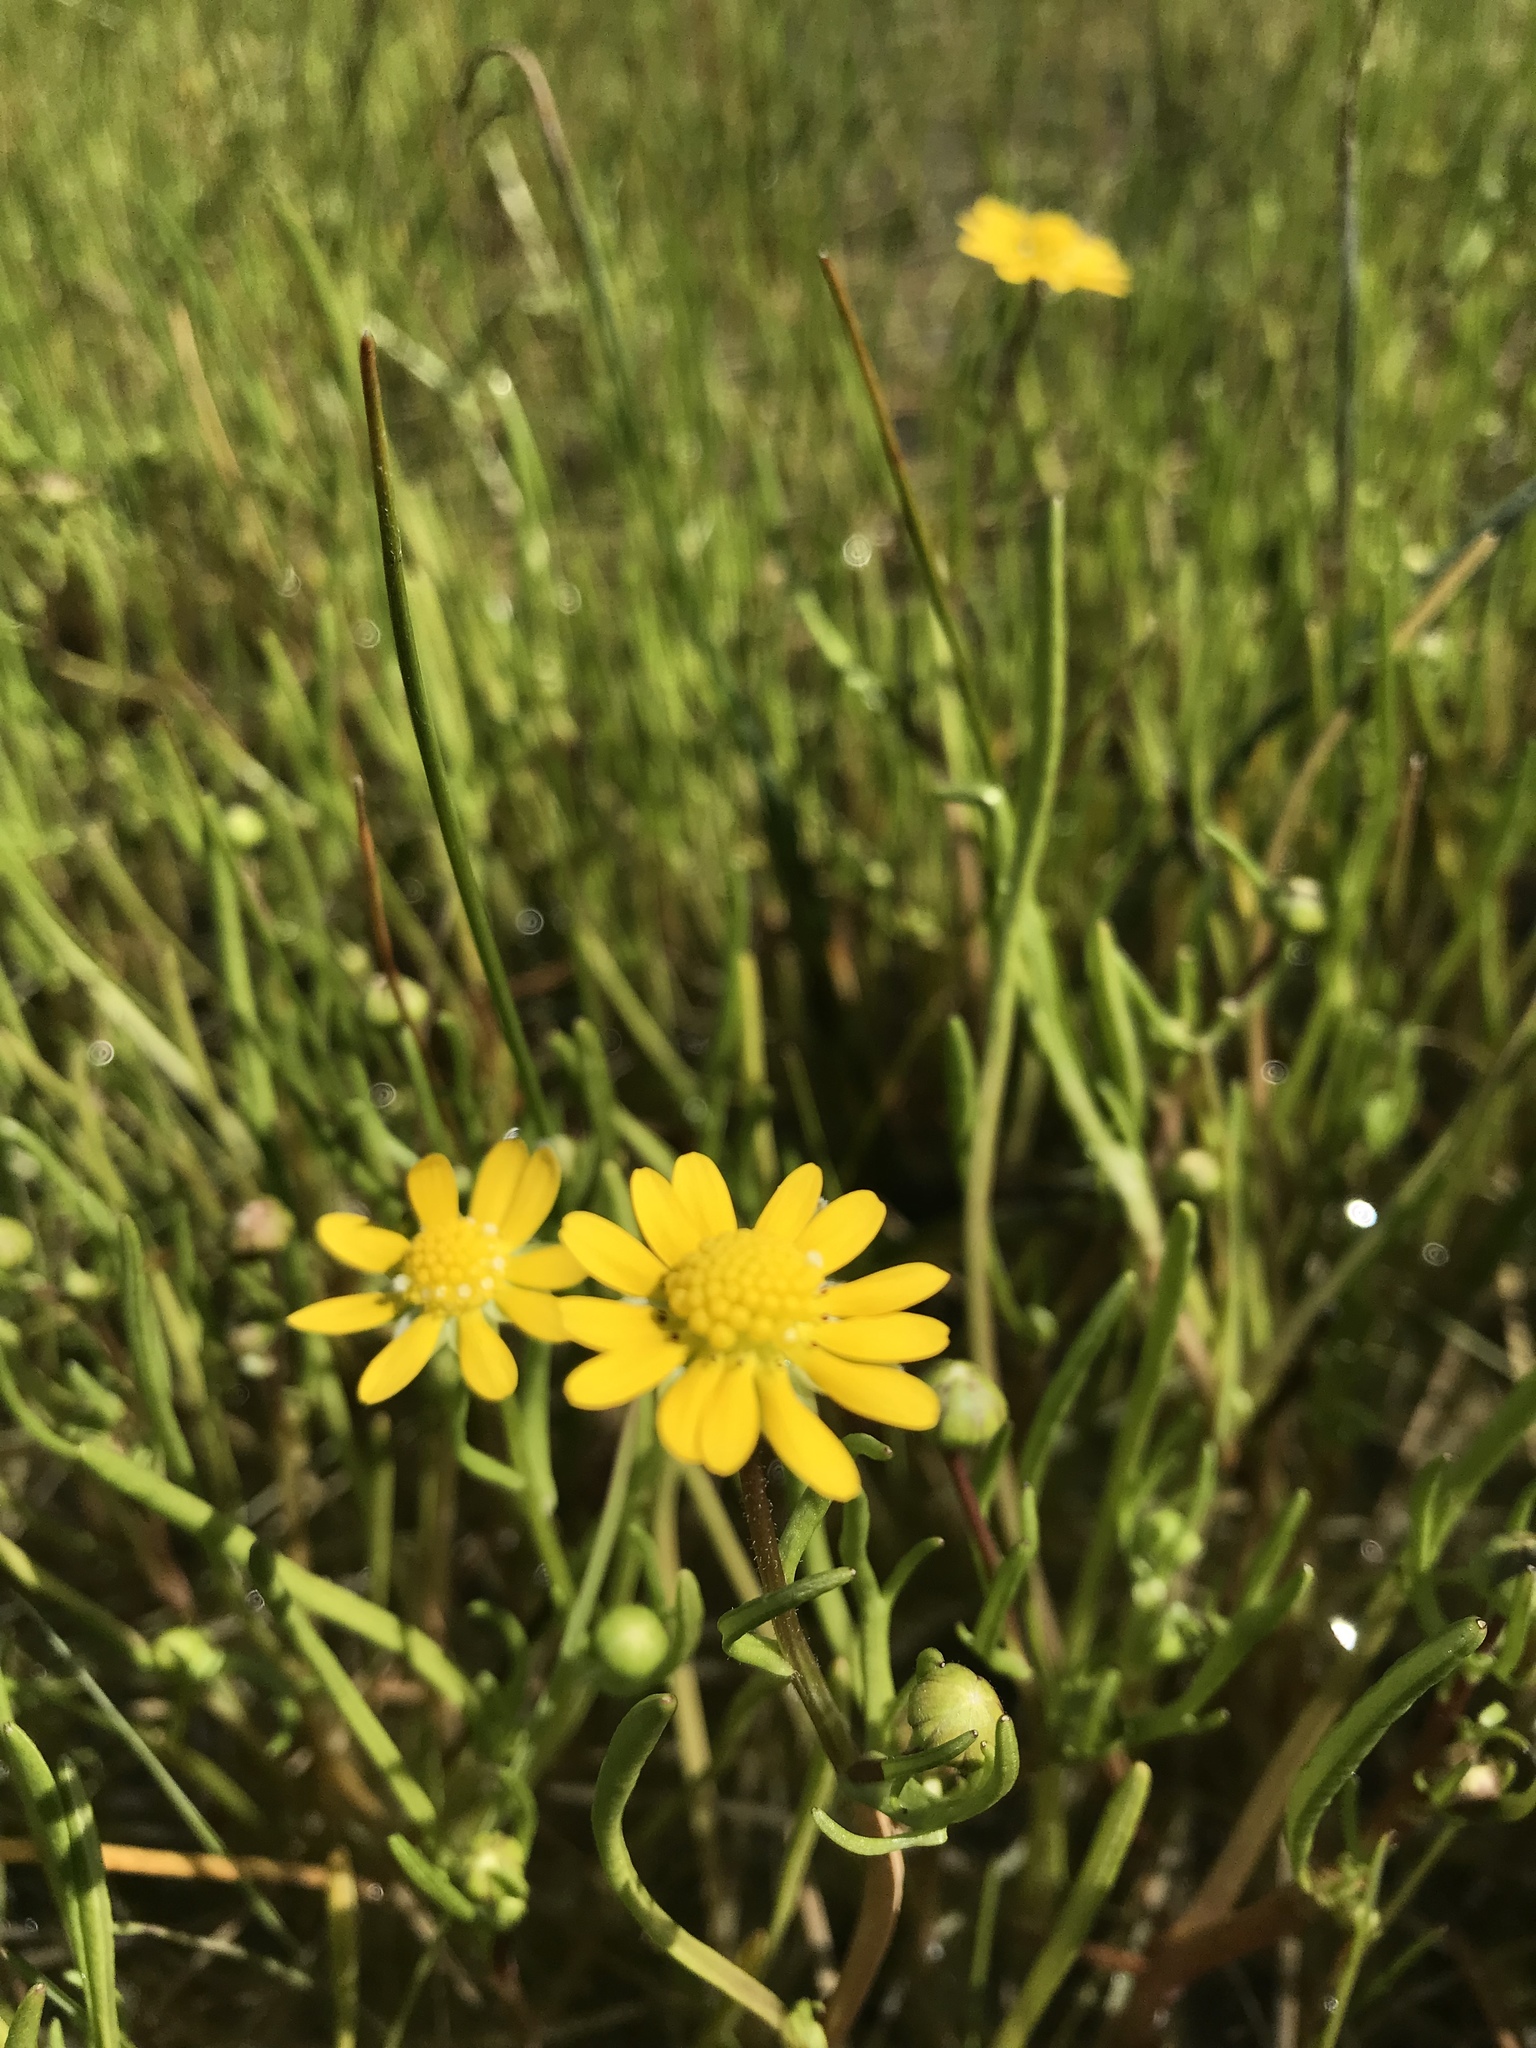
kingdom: Plantae
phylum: Tracheophyta
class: Magnoliopsida
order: Asterales
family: Asteraceae
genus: Blennosperma
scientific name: Blennosperma bakeri
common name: Sonoma sunshine
